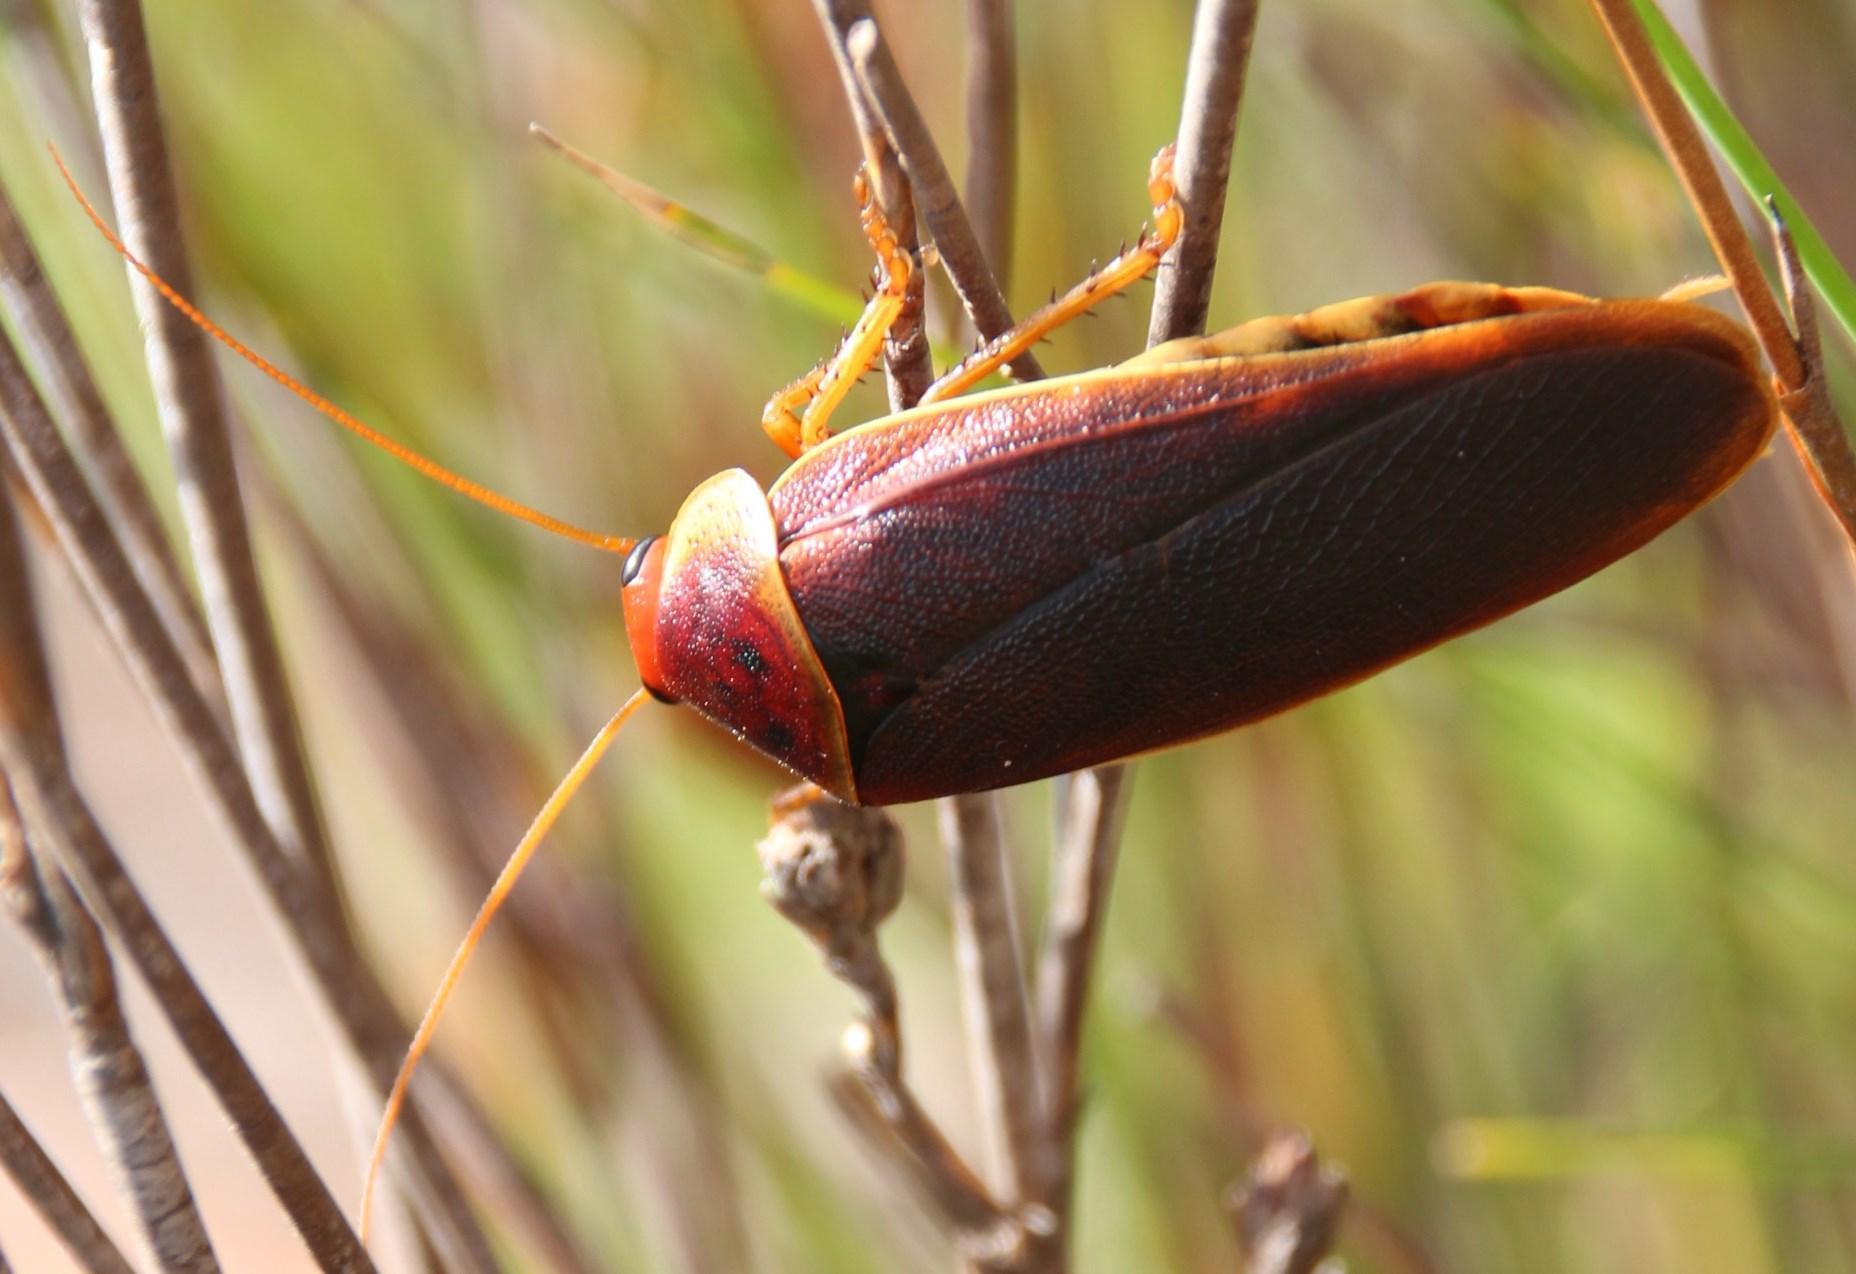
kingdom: Animalia
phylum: Arthropoda
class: Insecta
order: Blattodea
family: Blaberidae
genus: Aptera
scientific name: Aptera fusca
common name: Cape mountain cockroach
